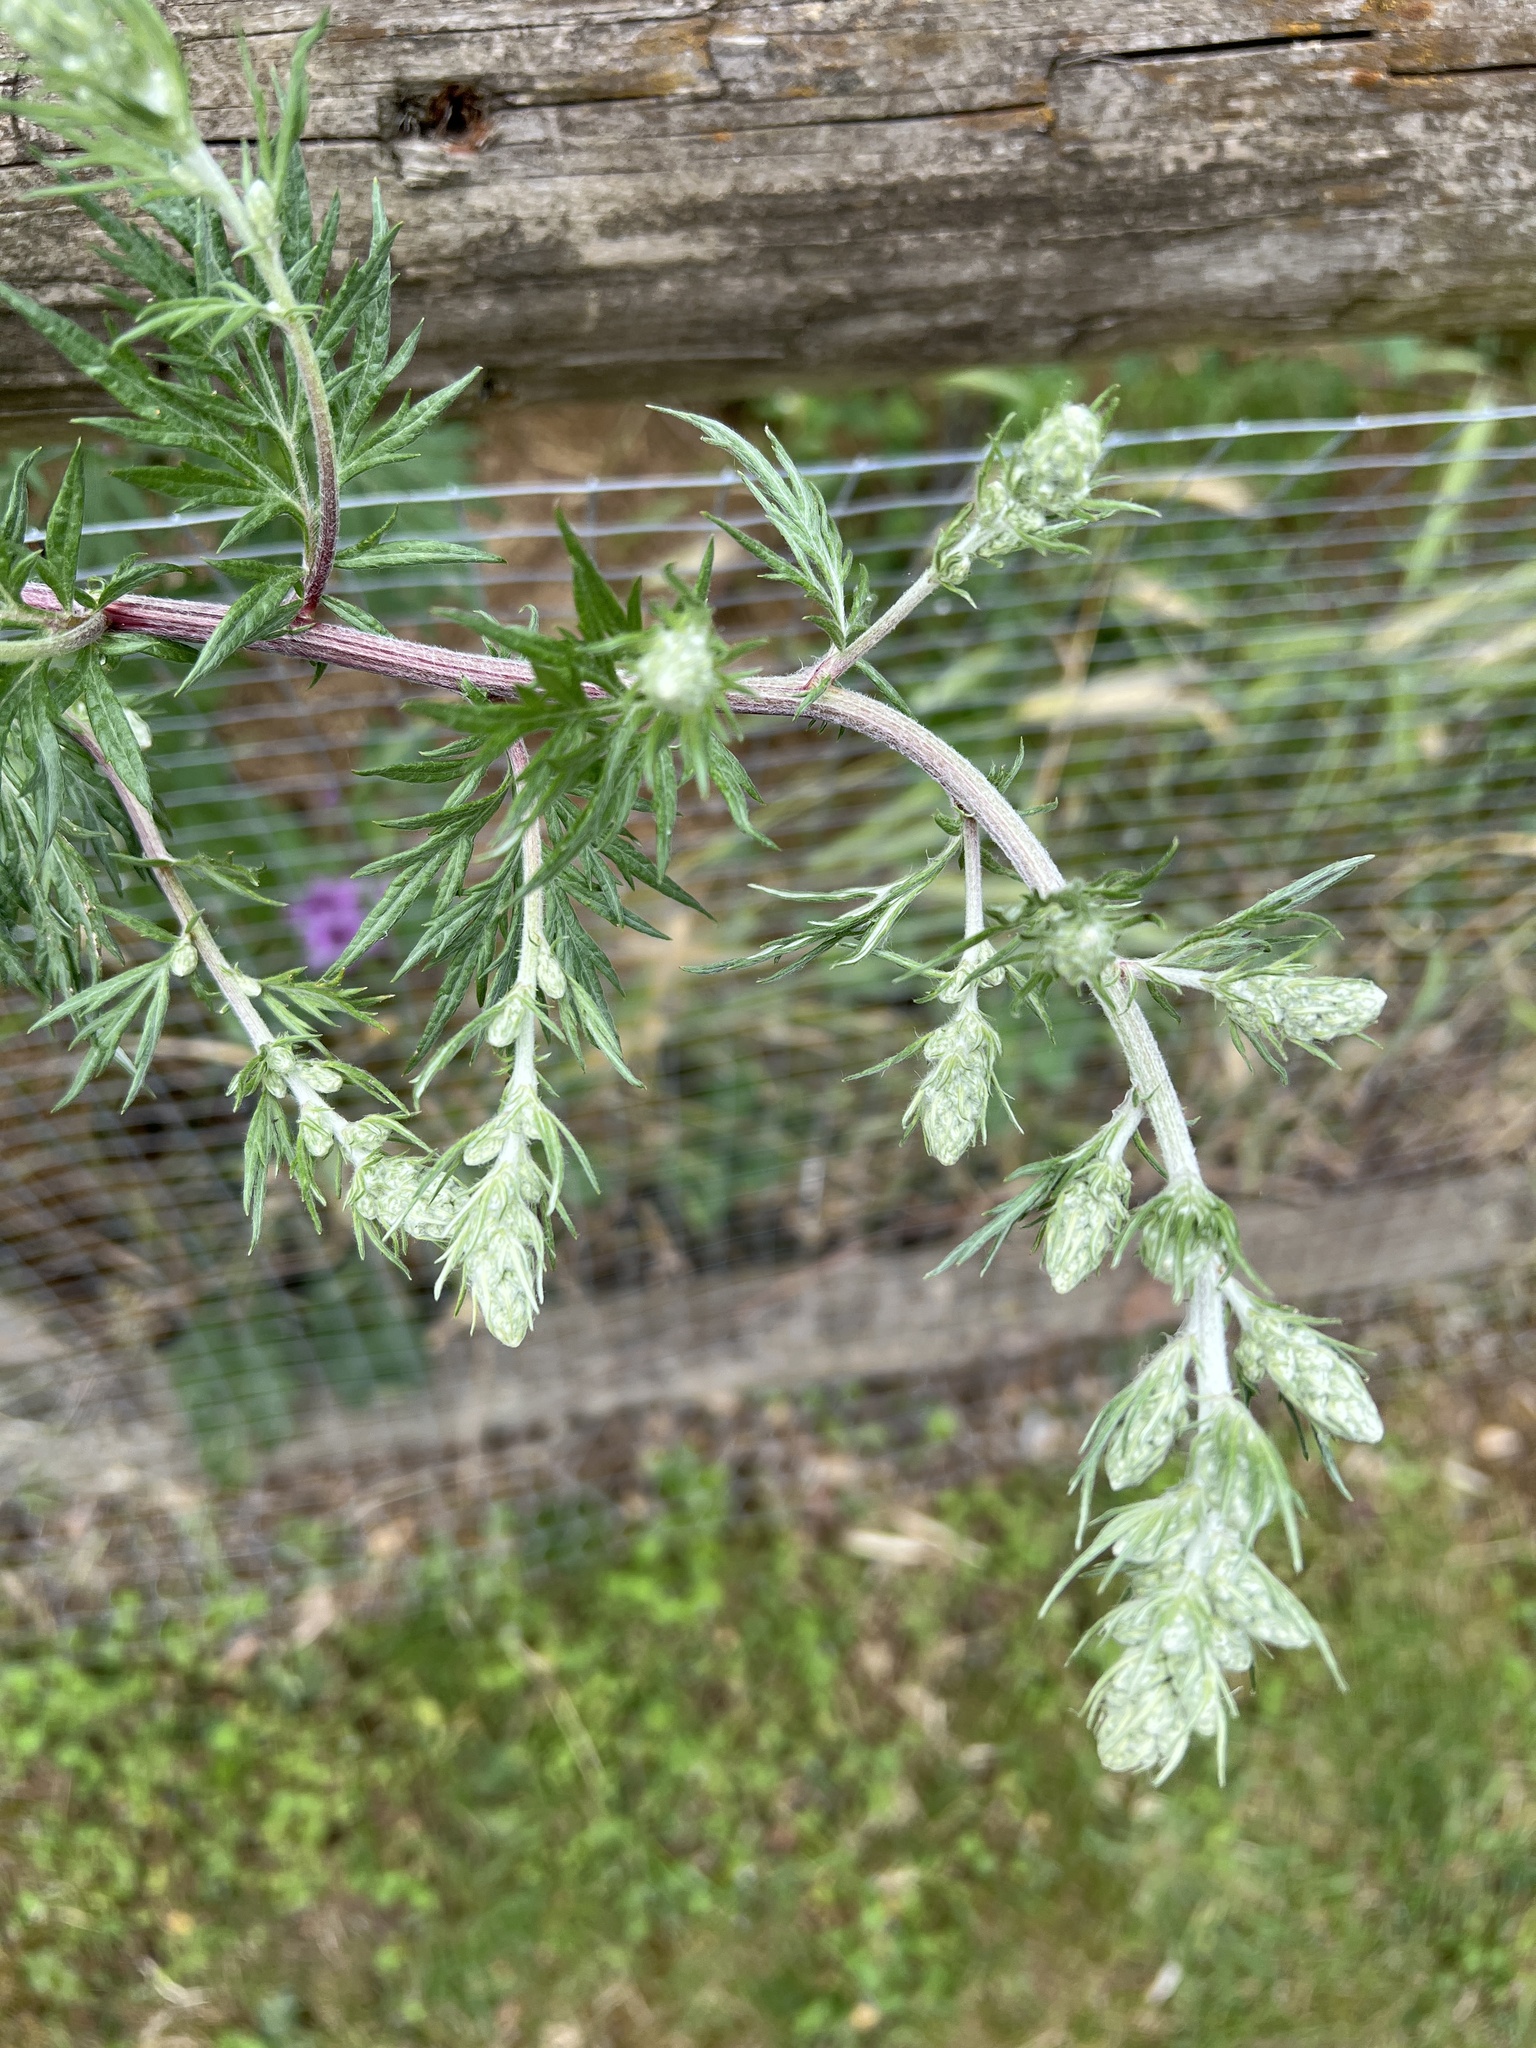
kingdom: Plantae
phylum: Tracheophyta
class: Magnoliopsida
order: Asterales
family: Asteraceae
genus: Artemisia
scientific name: Artemisia vulgaris
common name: Mugwort
